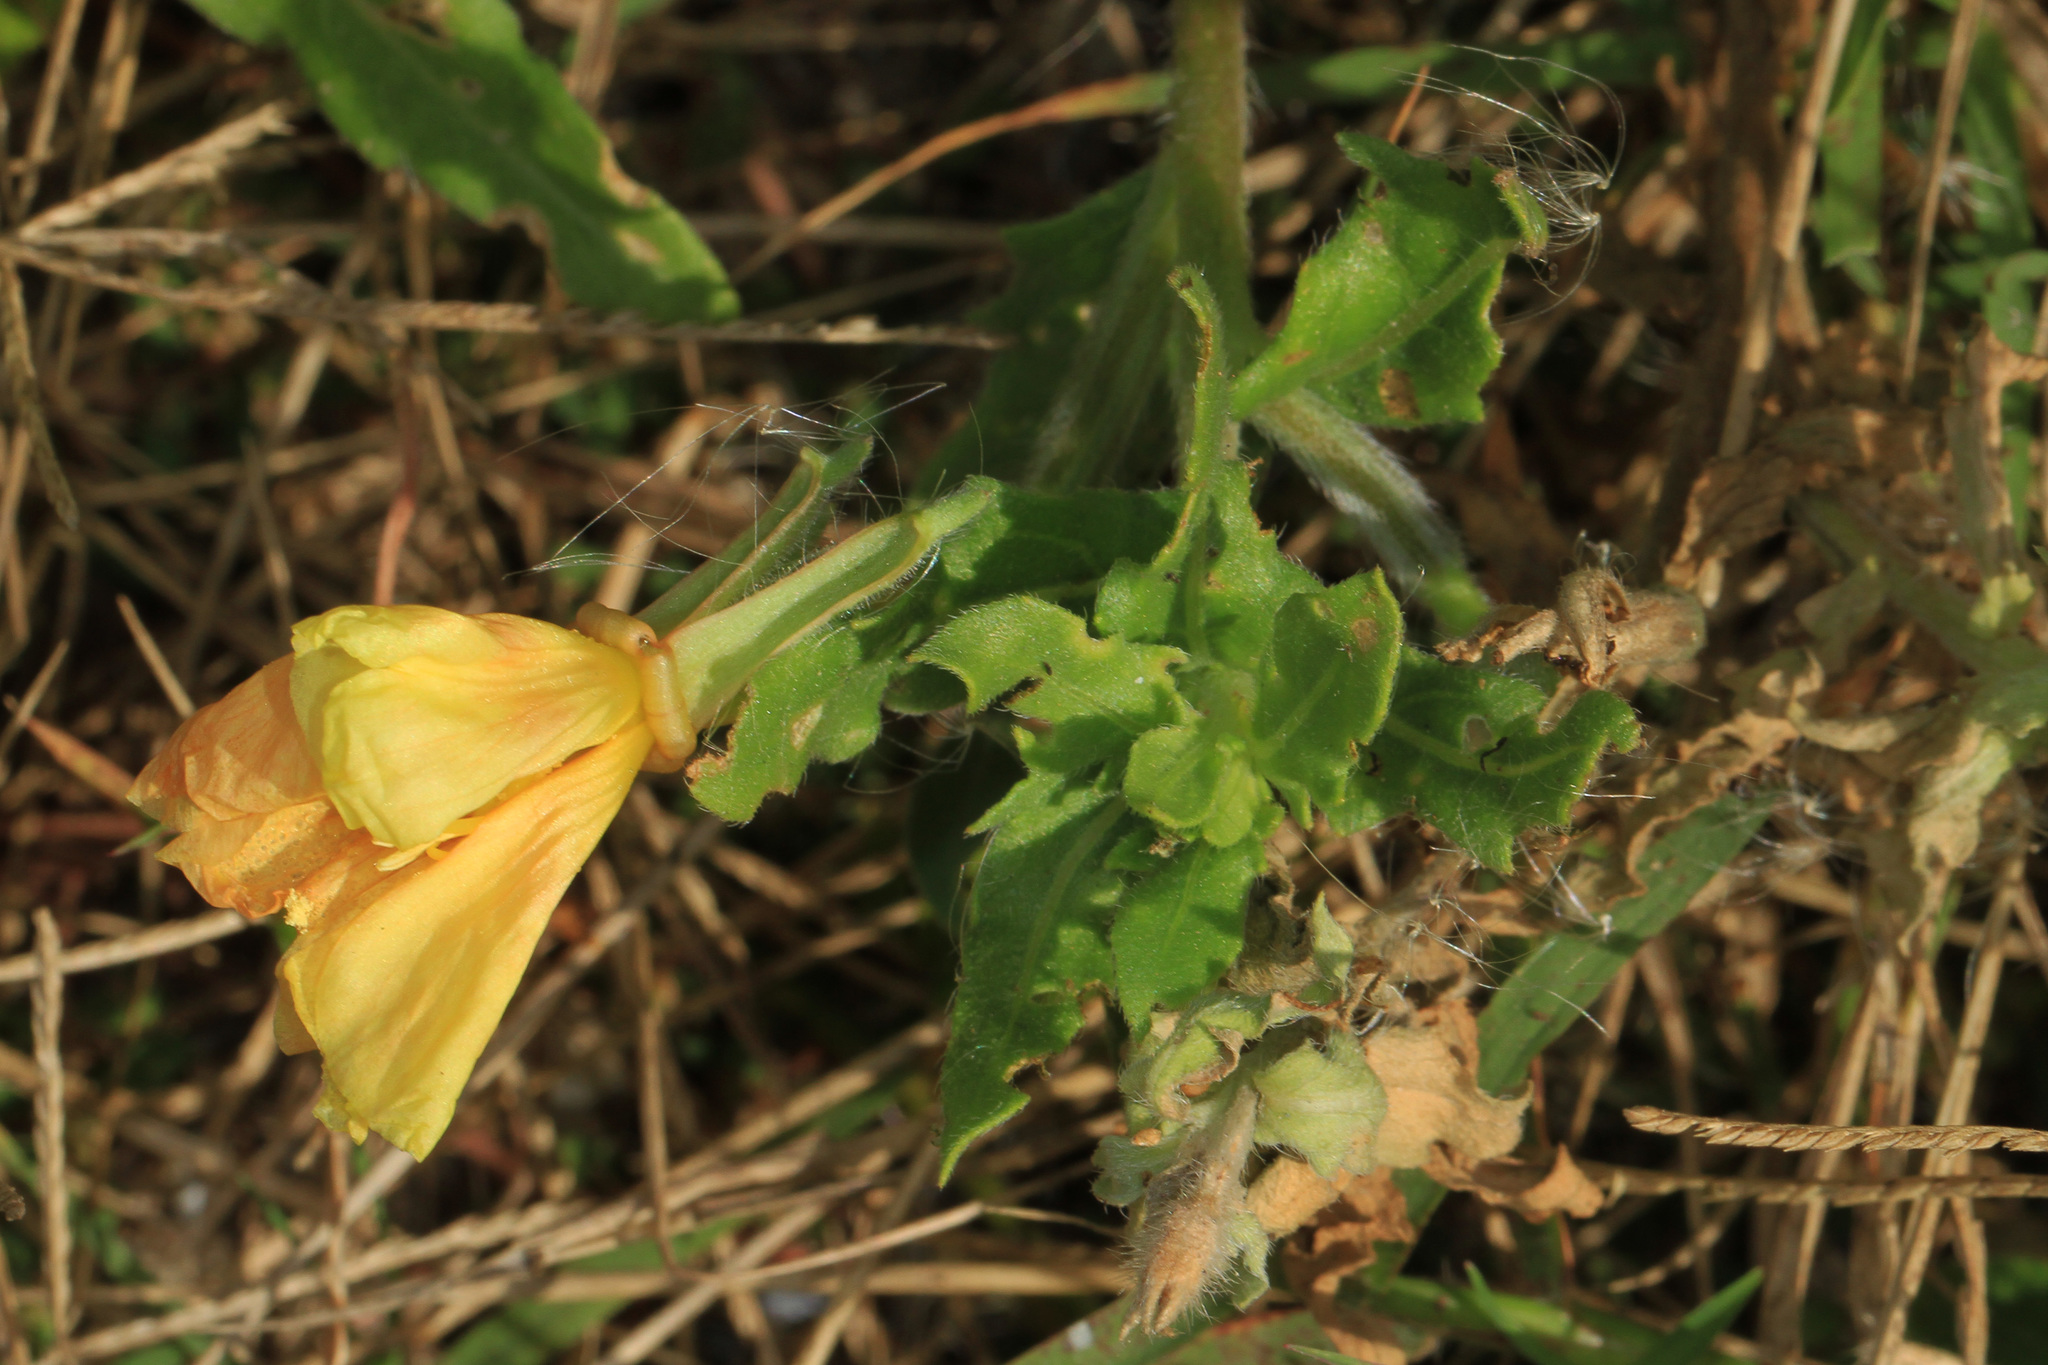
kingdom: Plantae
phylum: Tracheophyta
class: Magnoliopsida
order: Myrtales
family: Onagraceae
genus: Oenothera
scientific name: Oenothera humifusa
